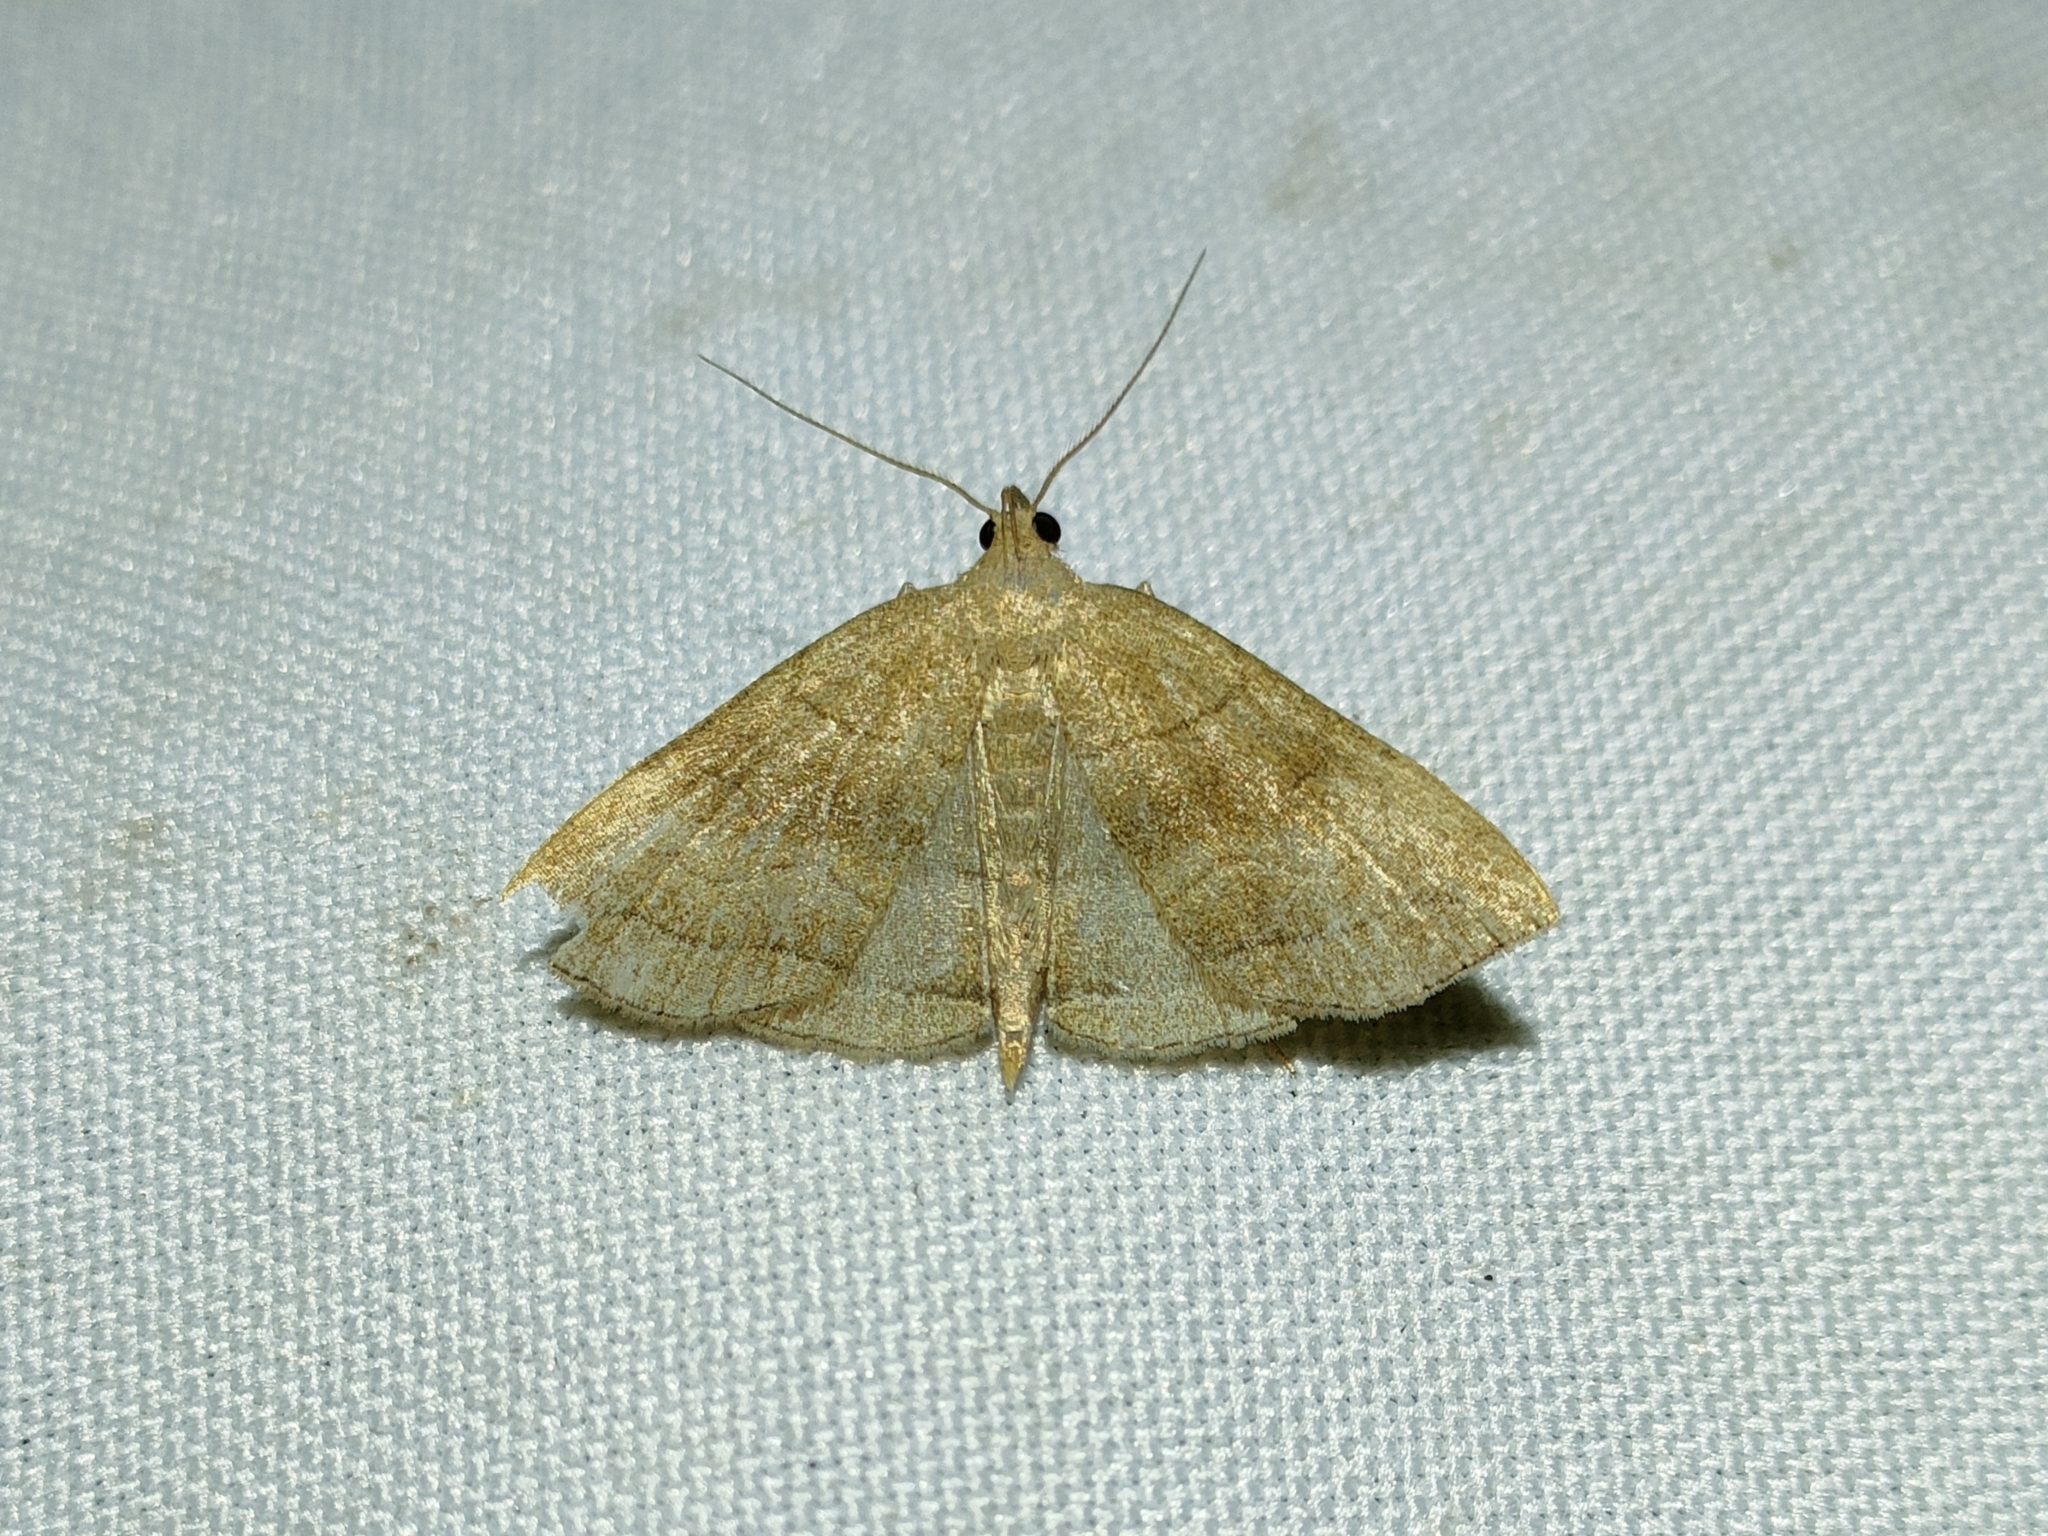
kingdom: Animalia
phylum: Arthropoda
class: Insecta
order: Lepidoptera
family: Erebidae
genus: Herminia
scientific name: Herminia tarsicrinalis
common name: Shaded fan-foot
